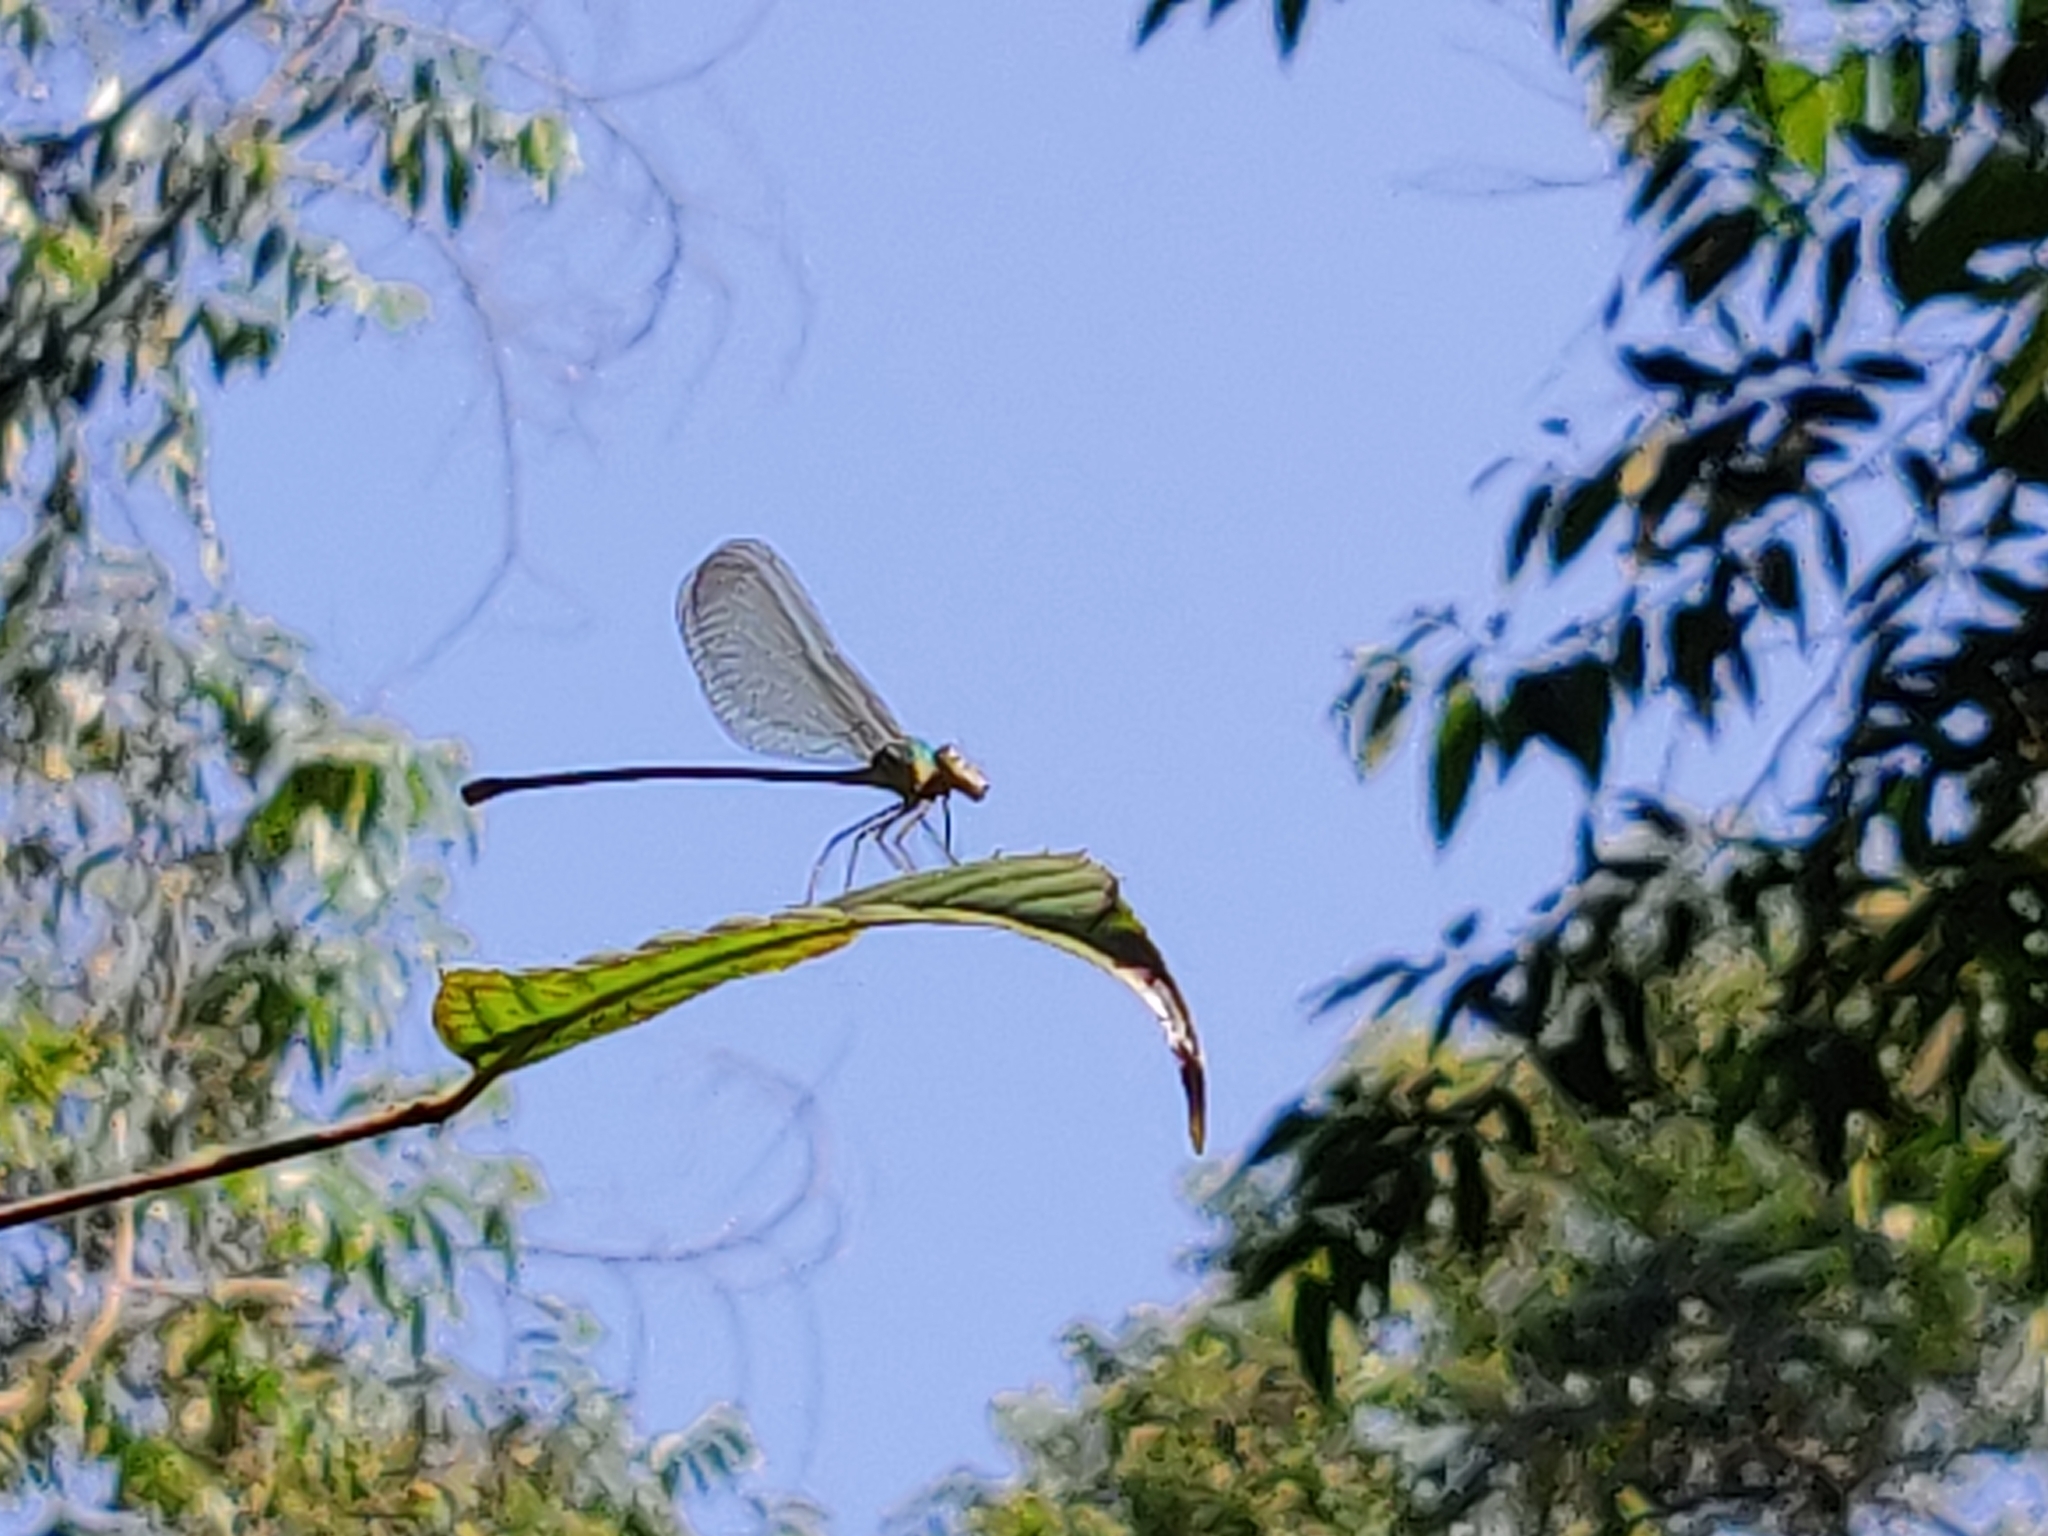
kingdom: Animalia
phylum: Arthropoda
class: Insecta
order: Odonata
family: Calopterygidae
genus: Vestalis
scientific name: Vestalis gracilis
